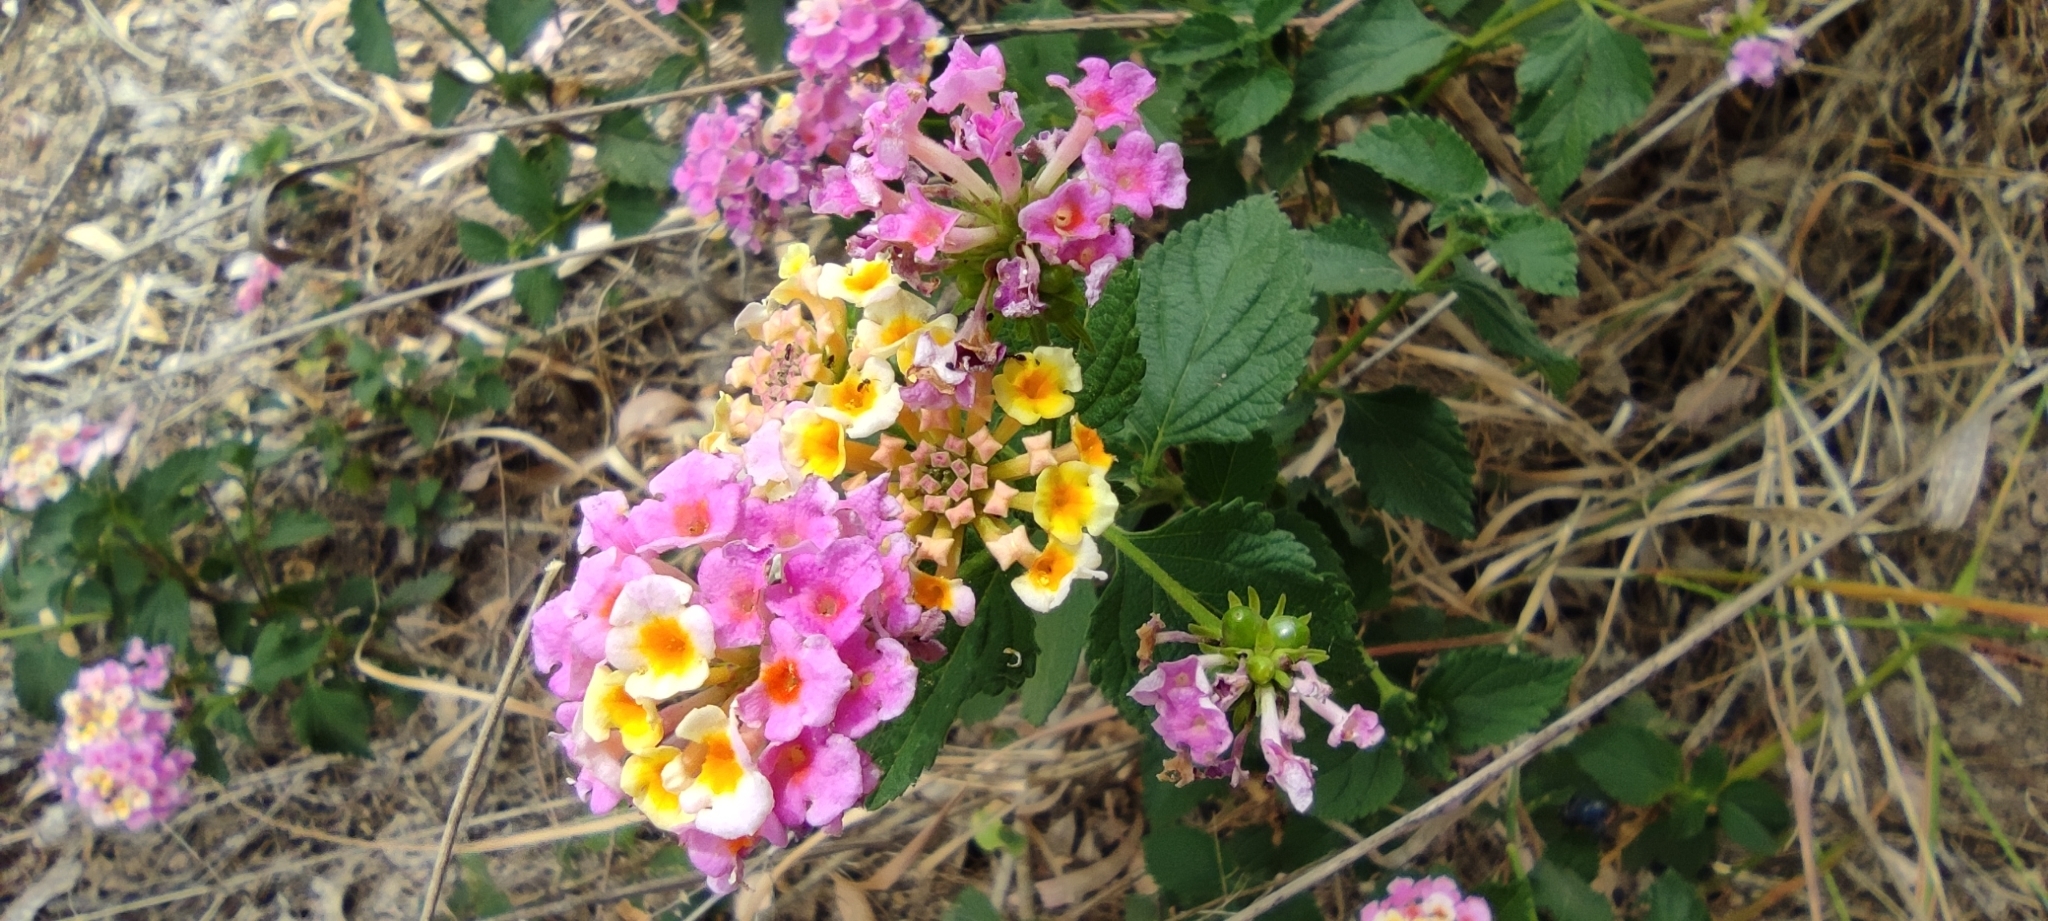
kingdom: Plantae
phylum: Tracheophyta
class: Magnoliopsida
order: Lamiales
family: Verbenaceae
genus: Lantana
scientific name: Lantana camara
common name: Lantana
